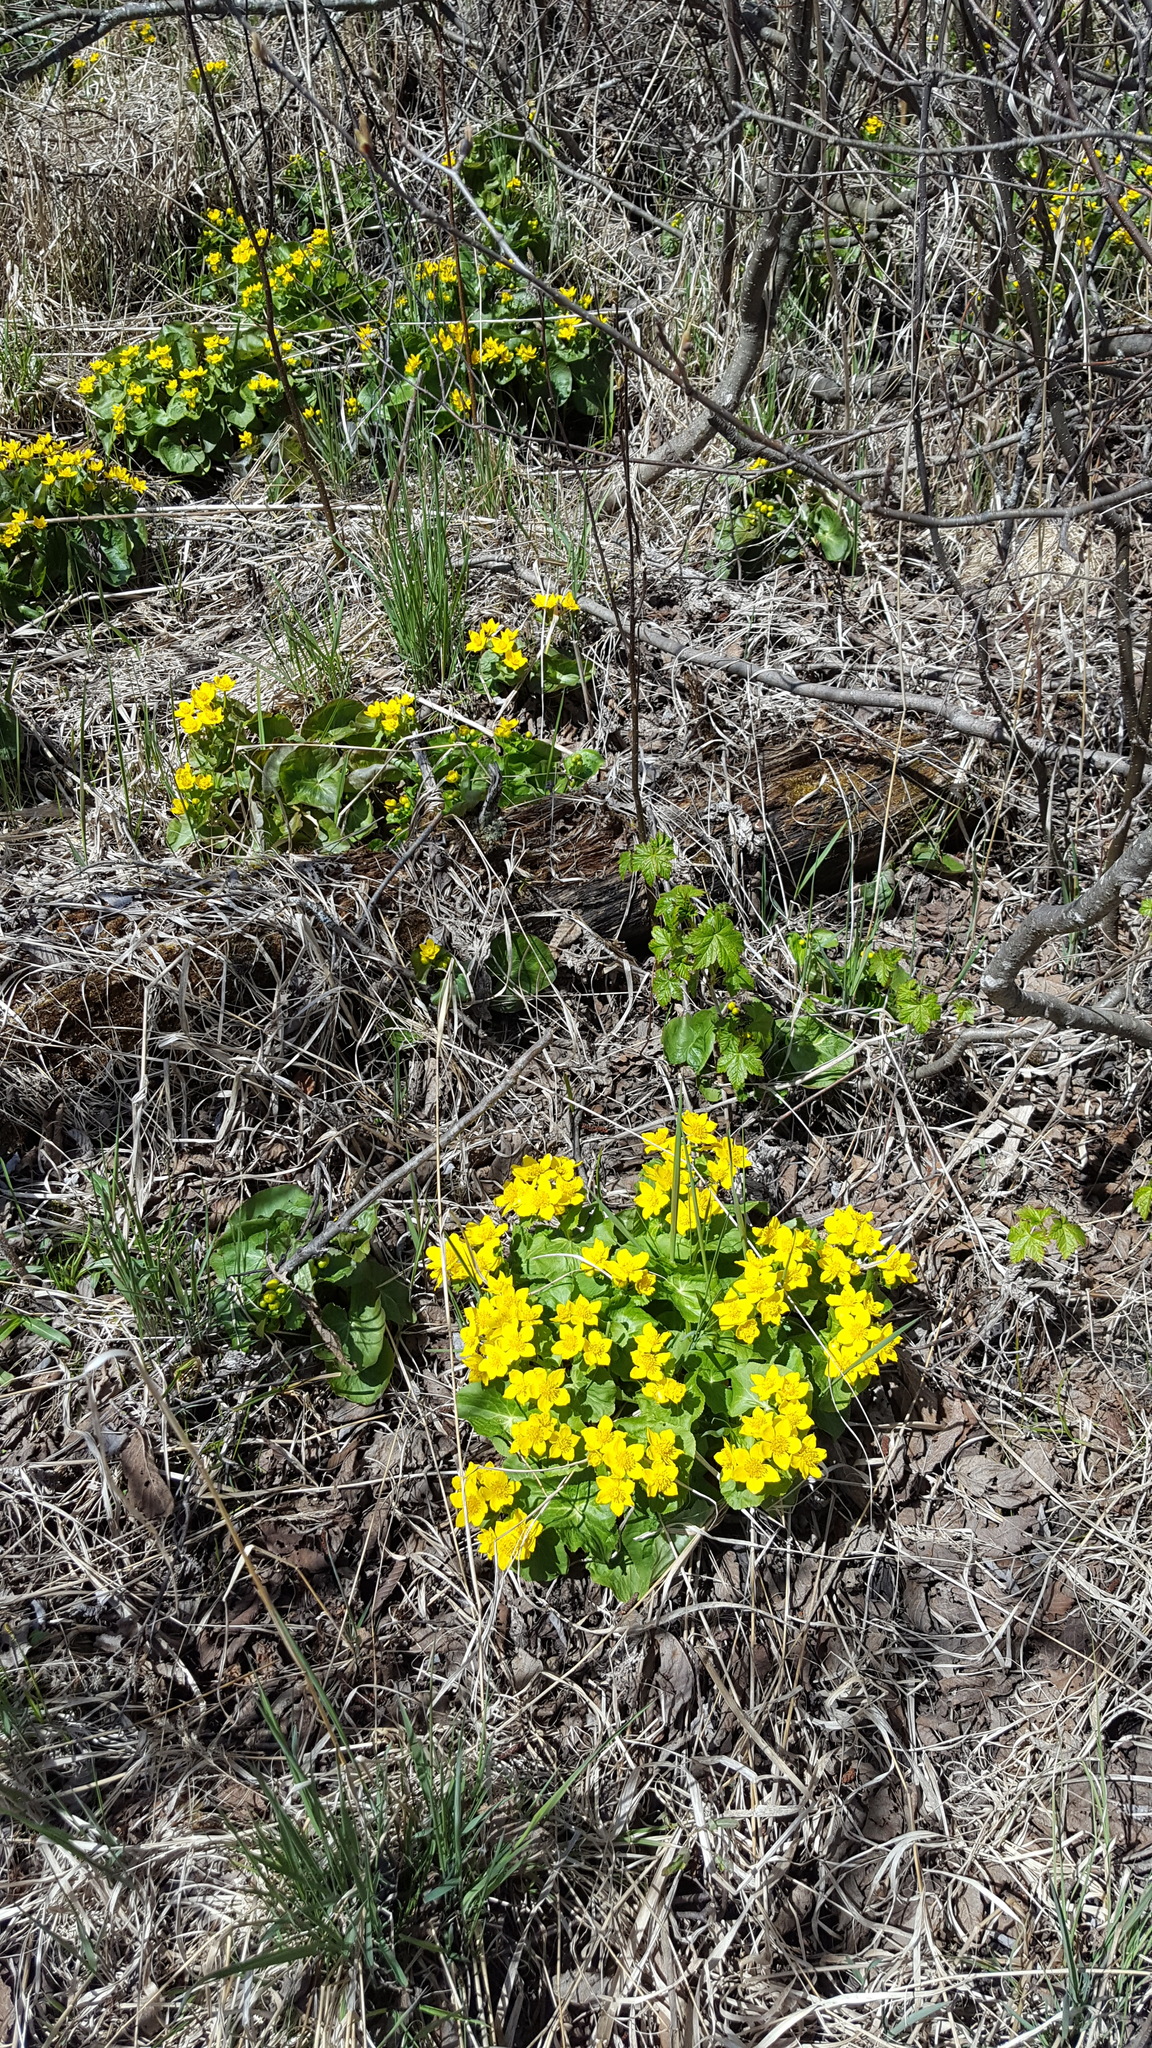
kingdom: Plantae
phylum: Tracheophyta
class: Magnoliopsida
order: Ranunculales
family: Ranunculaceae
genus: Caltha
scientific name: Caltha palustris
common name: Marsh marigold
